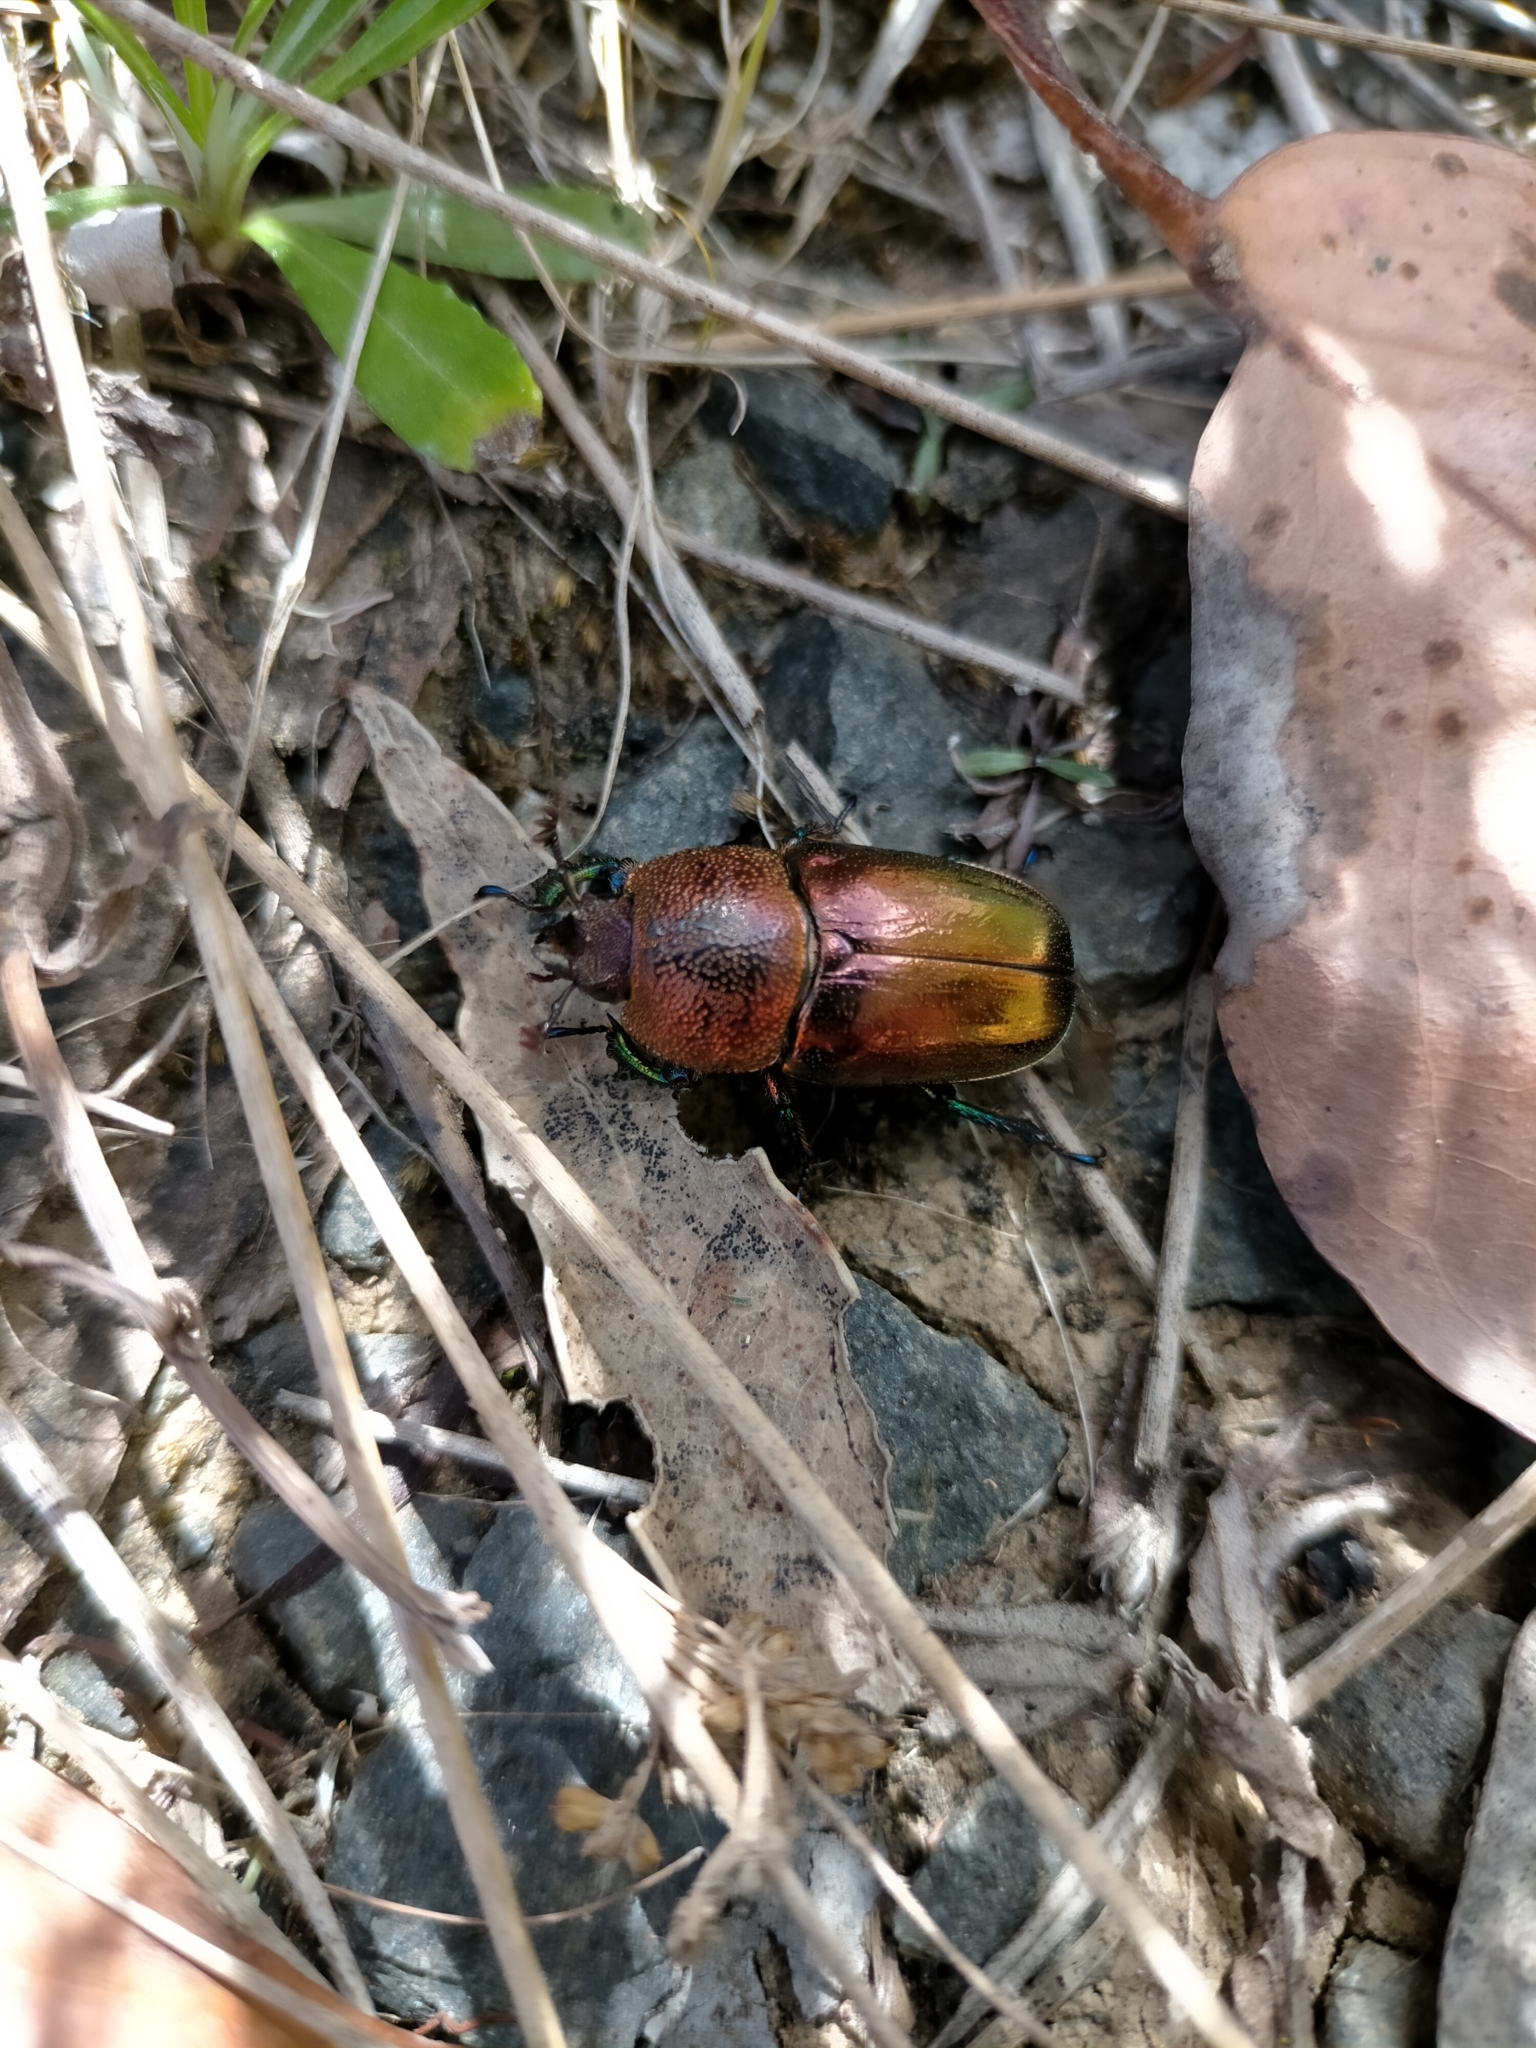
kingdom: Animalia
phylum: Arthropoda
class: Insecta
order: Coleoptera
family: Lucanidae
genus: Lamprima
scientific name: Lamprima aurata
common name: Golden stag beetle
